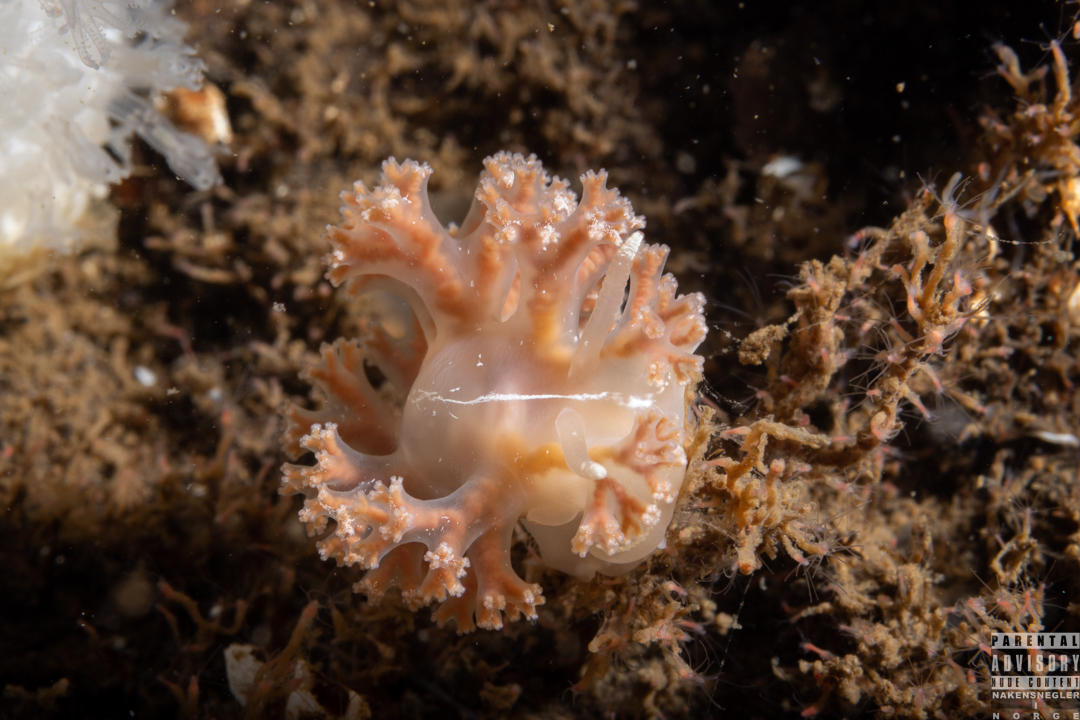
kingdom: Animalia
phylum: Mollusca
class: Gastropoda
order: Nudibranchia
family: Heroidae
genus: Hero
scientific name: Hero formosa
